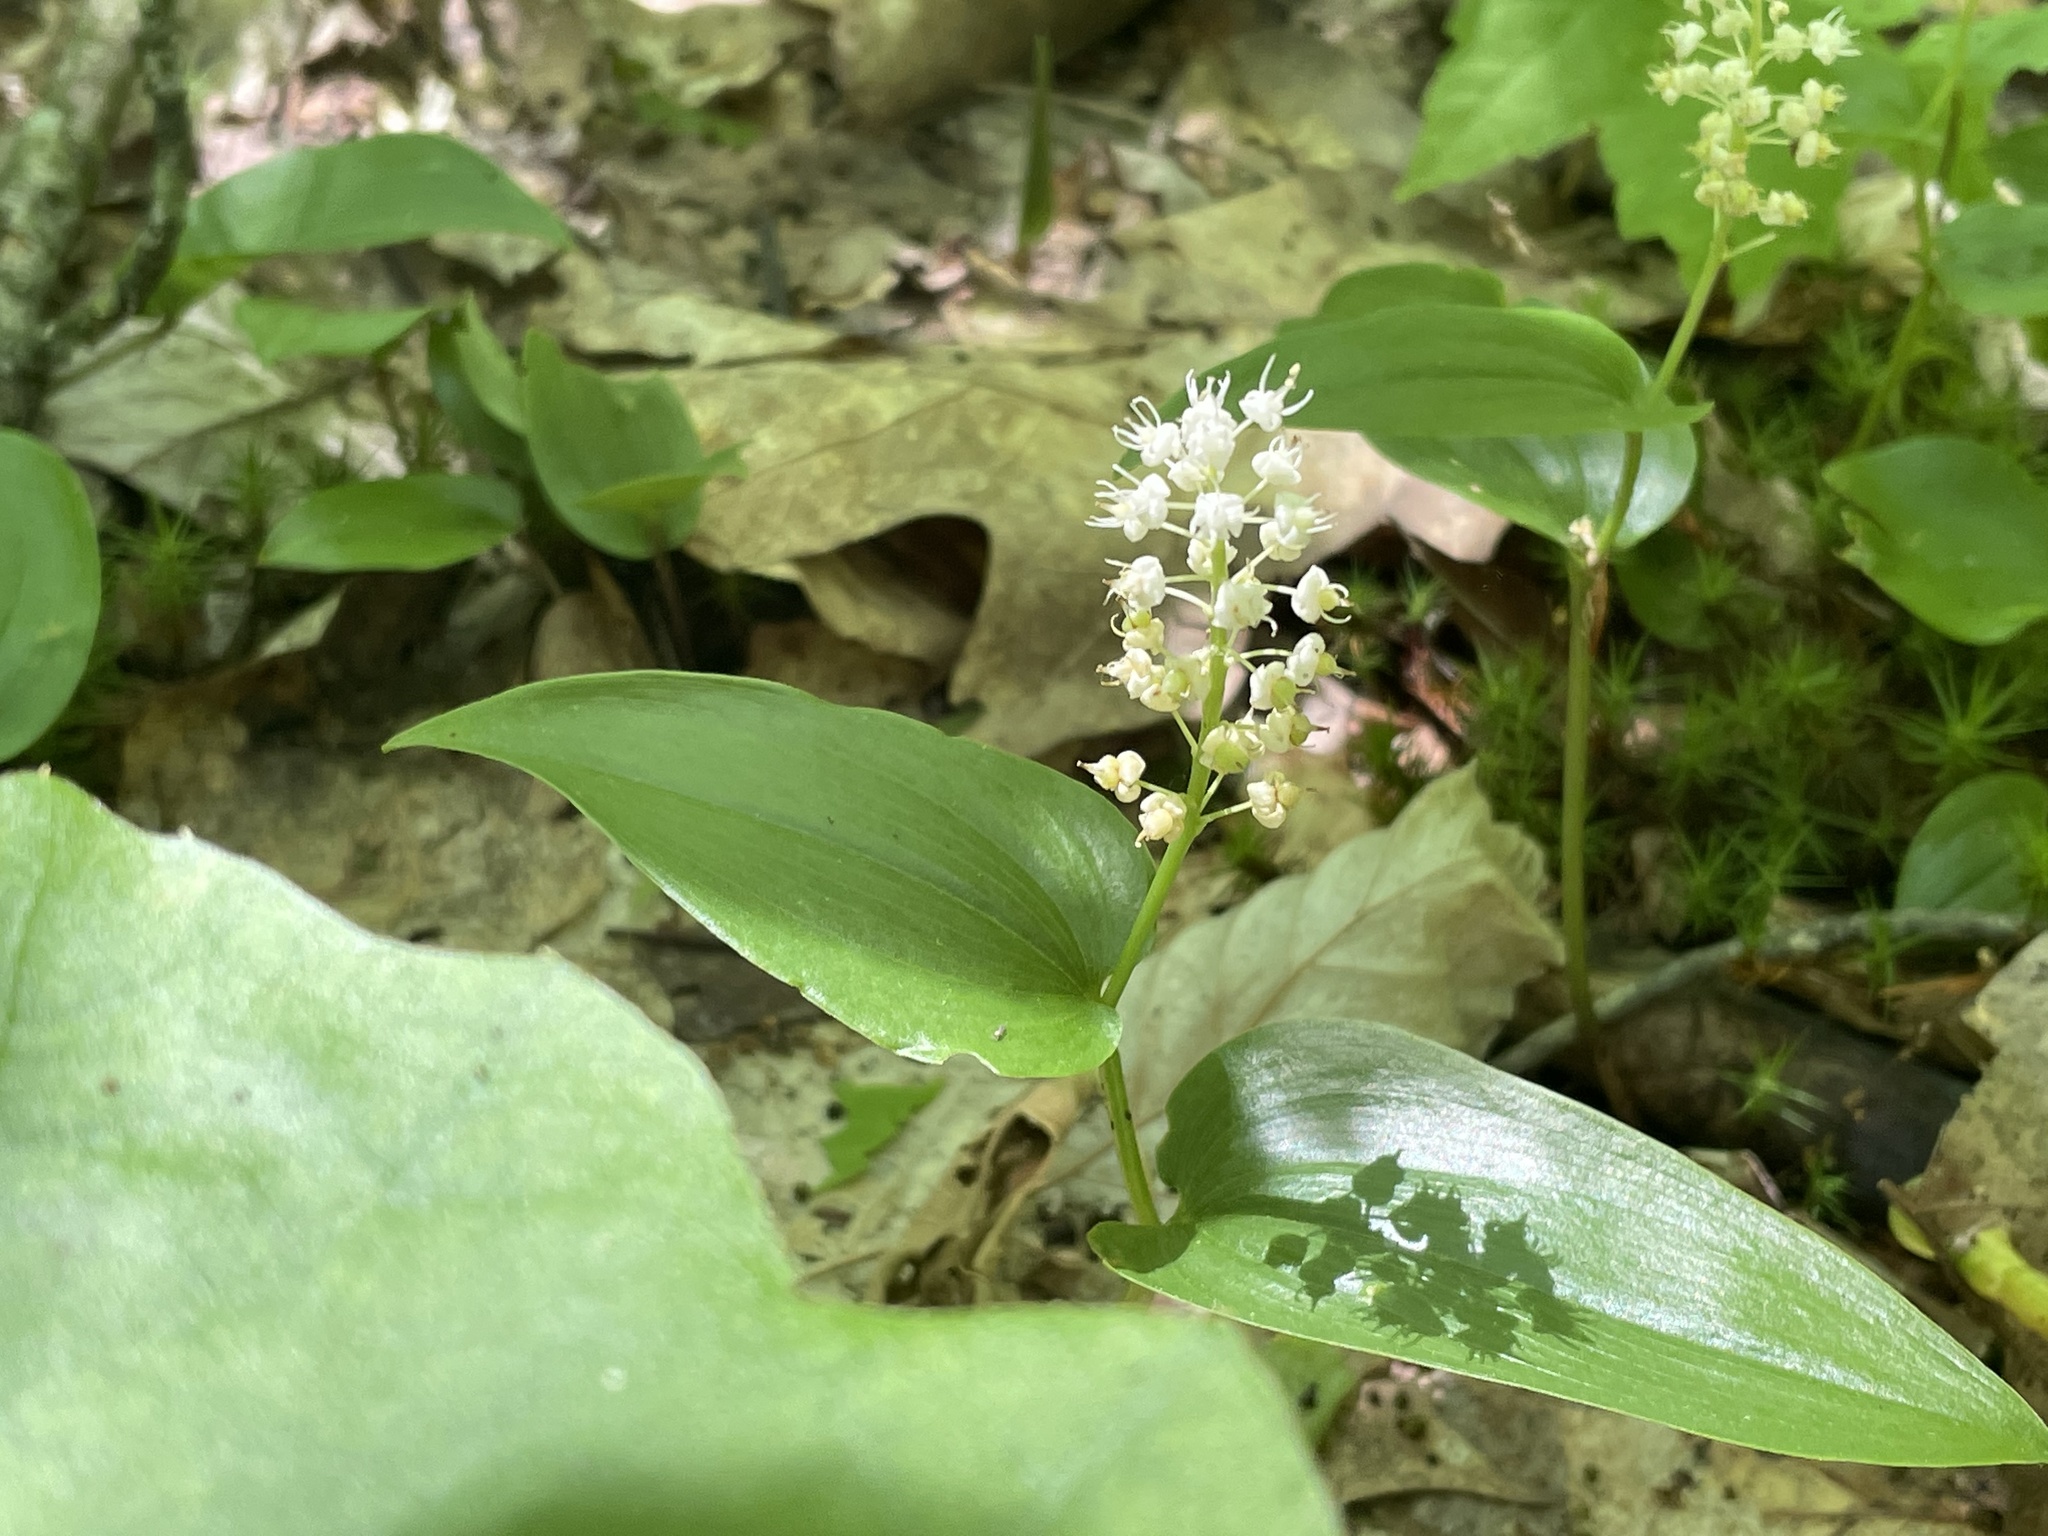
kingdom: Plantae
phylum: Tracheophyta
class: Liliopsida
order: Asparagales
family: Asparagaceae
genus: Maianthemum
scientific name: Maianthemum canadense
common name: False lily-of-the-valley
